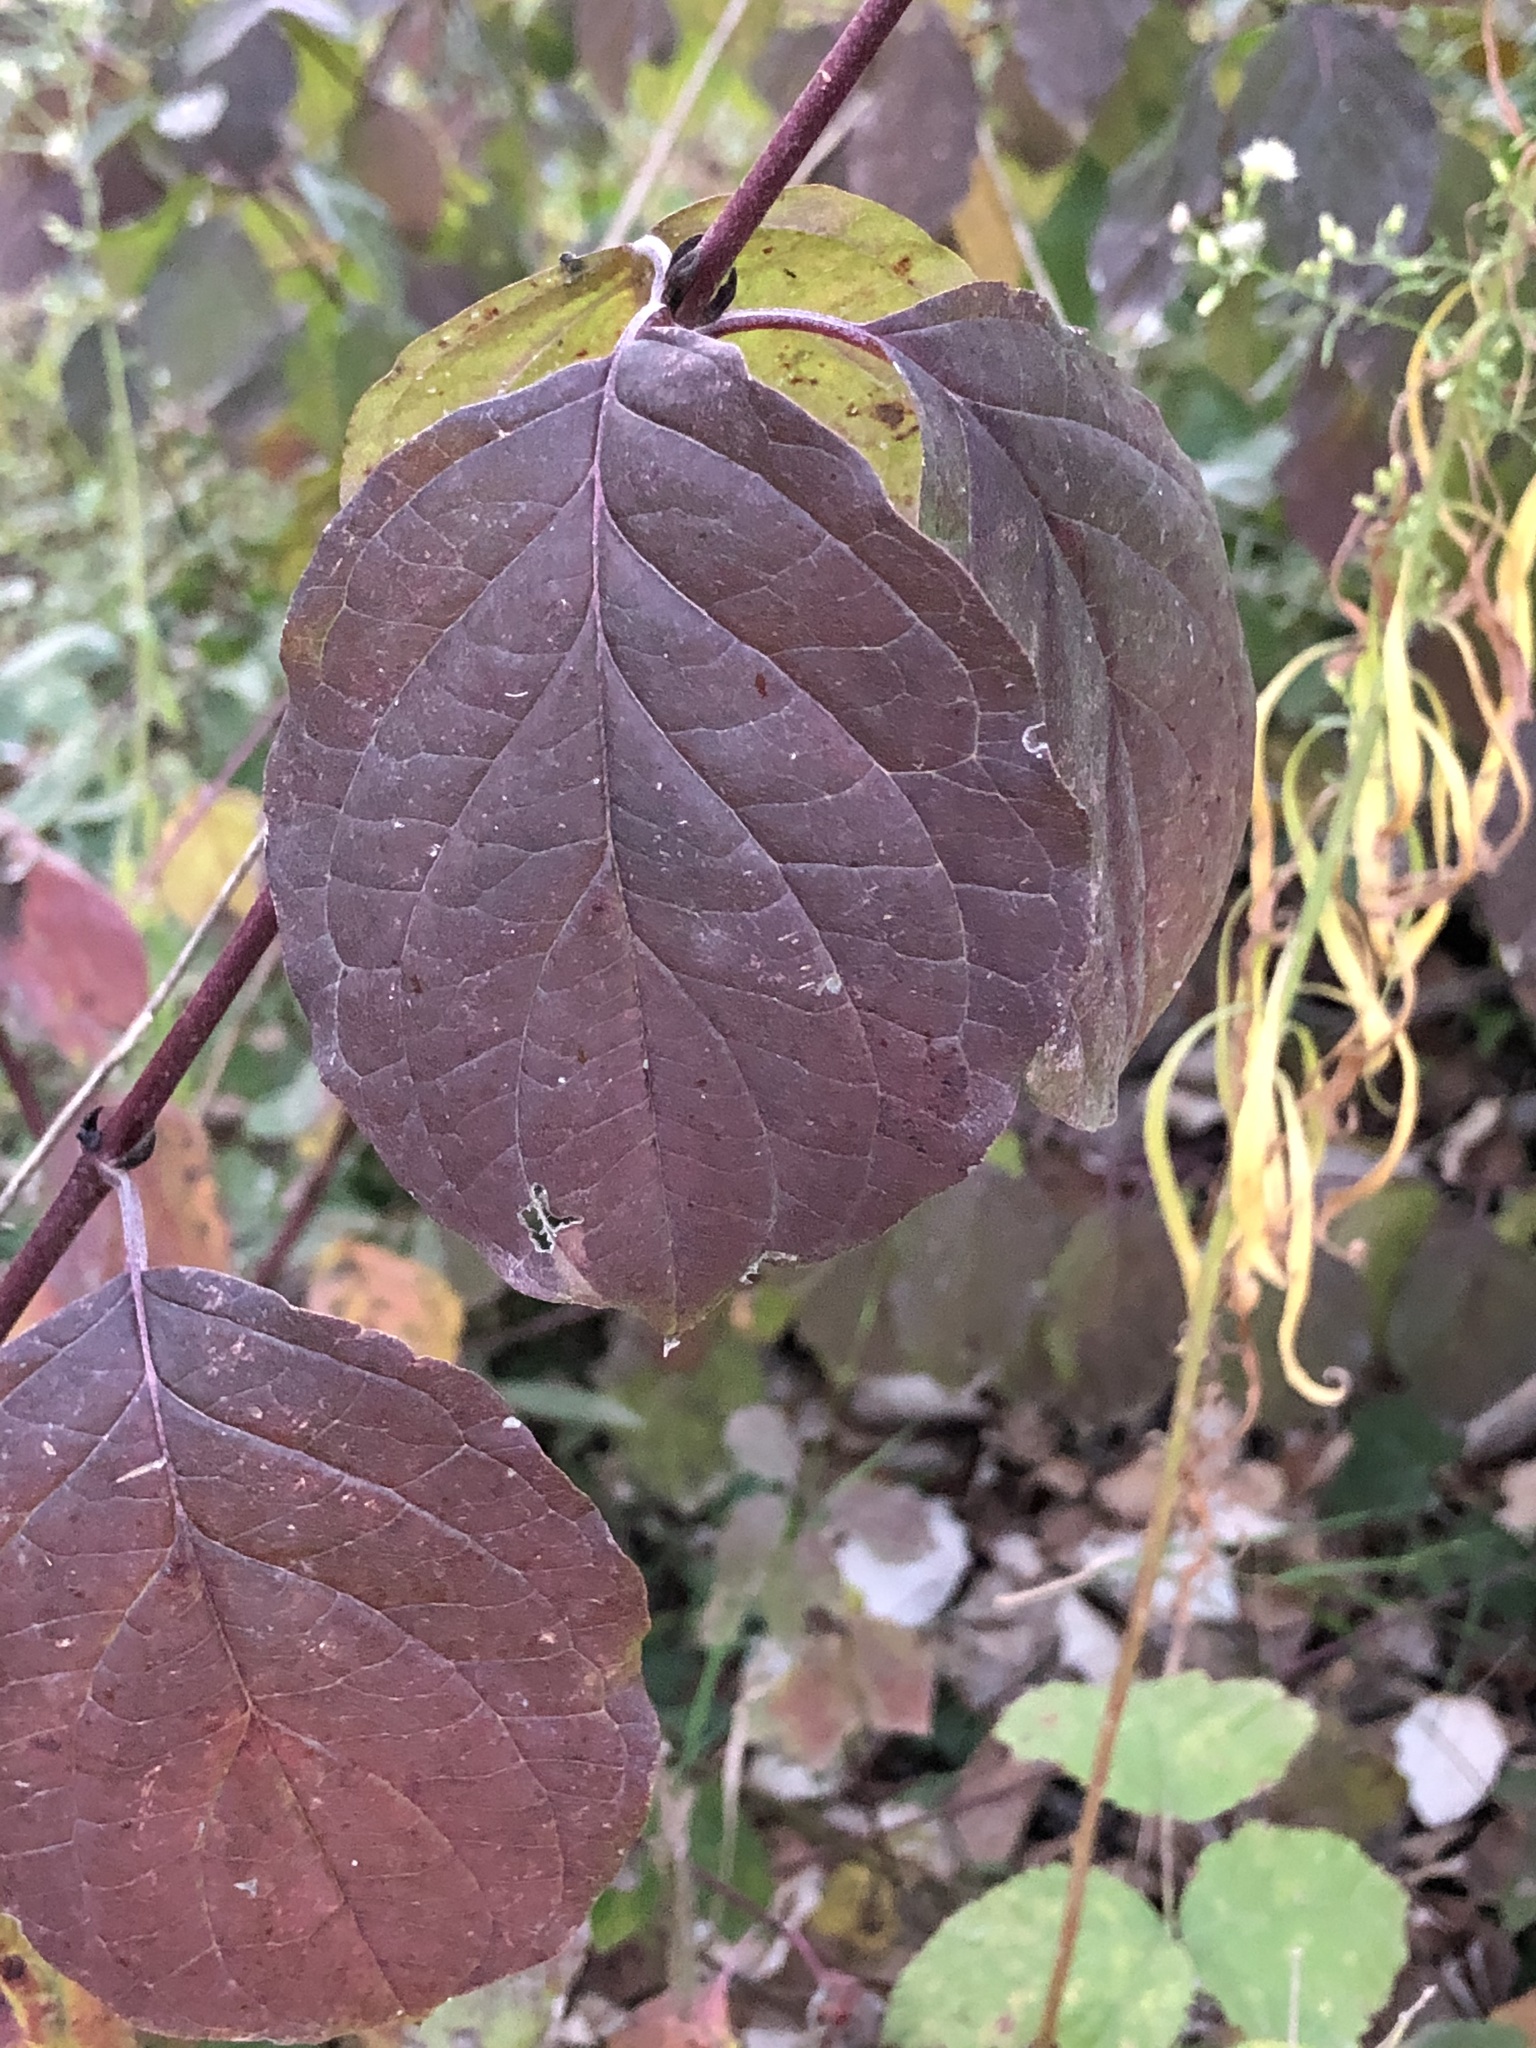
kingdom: Plantae
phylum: Tracheophyta
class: Magnoliopsida
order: Cornales
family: Cornaceae
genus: Cornus
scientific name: Cornus sanguinea
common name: Dogwood
